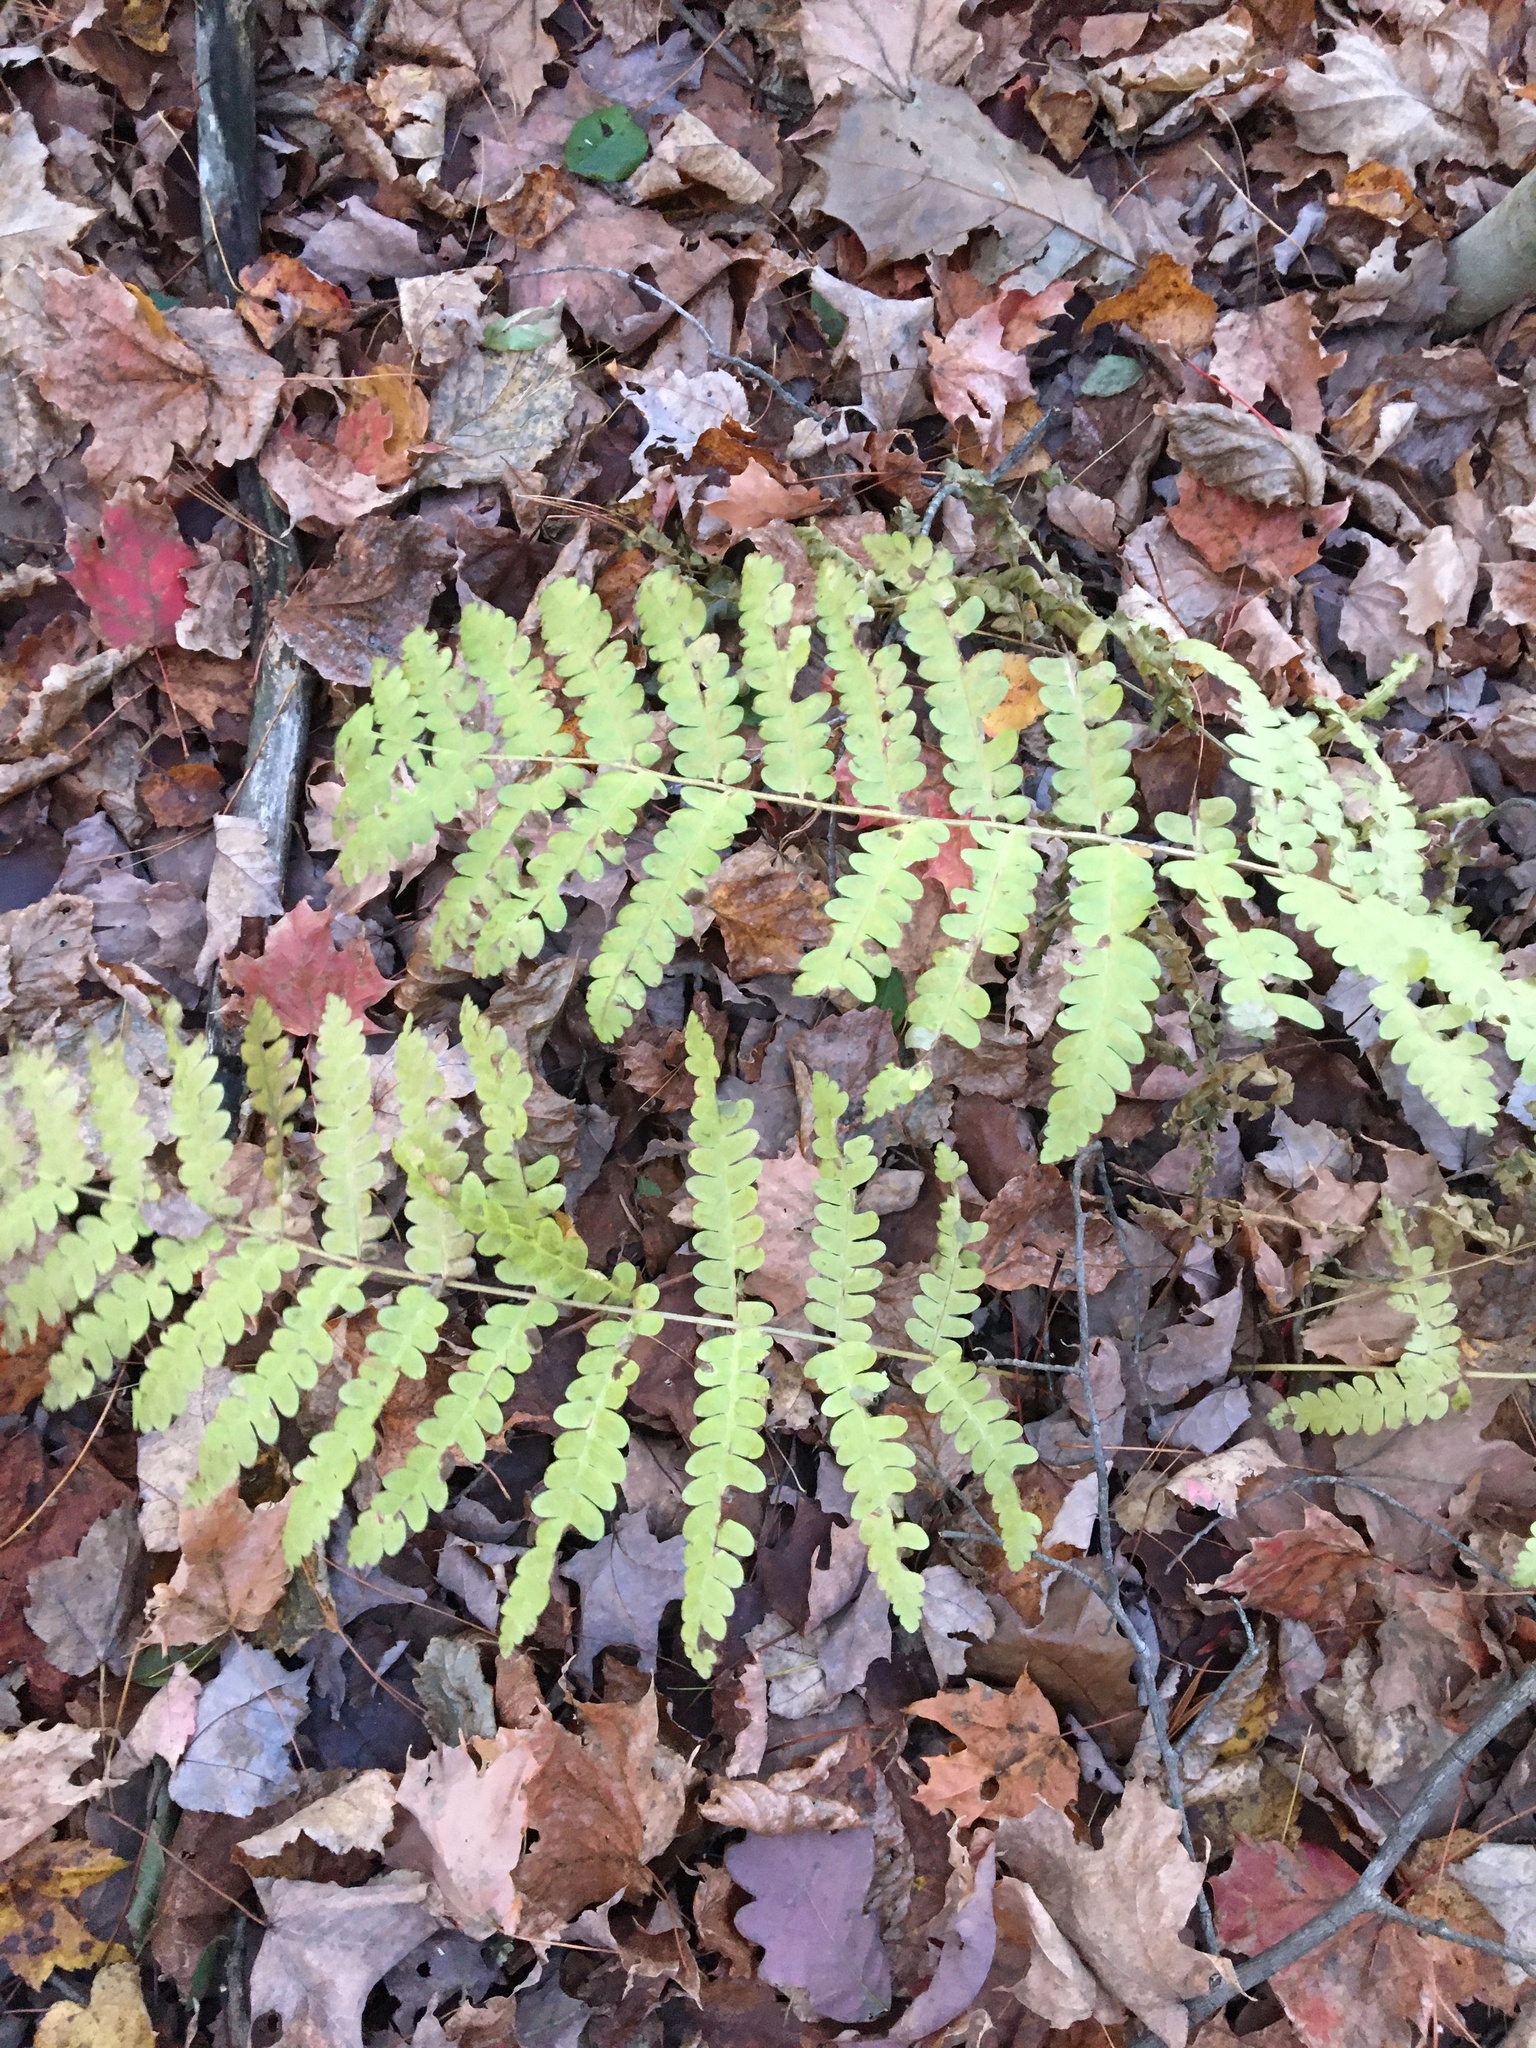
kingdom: Plantae
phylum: Tracheophyta
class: Polypodiopsida
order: Osmundales
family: Osmundaceae
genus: Claytosmunda
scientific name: Claytosmunda claytoniana
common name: Clayton's fern
